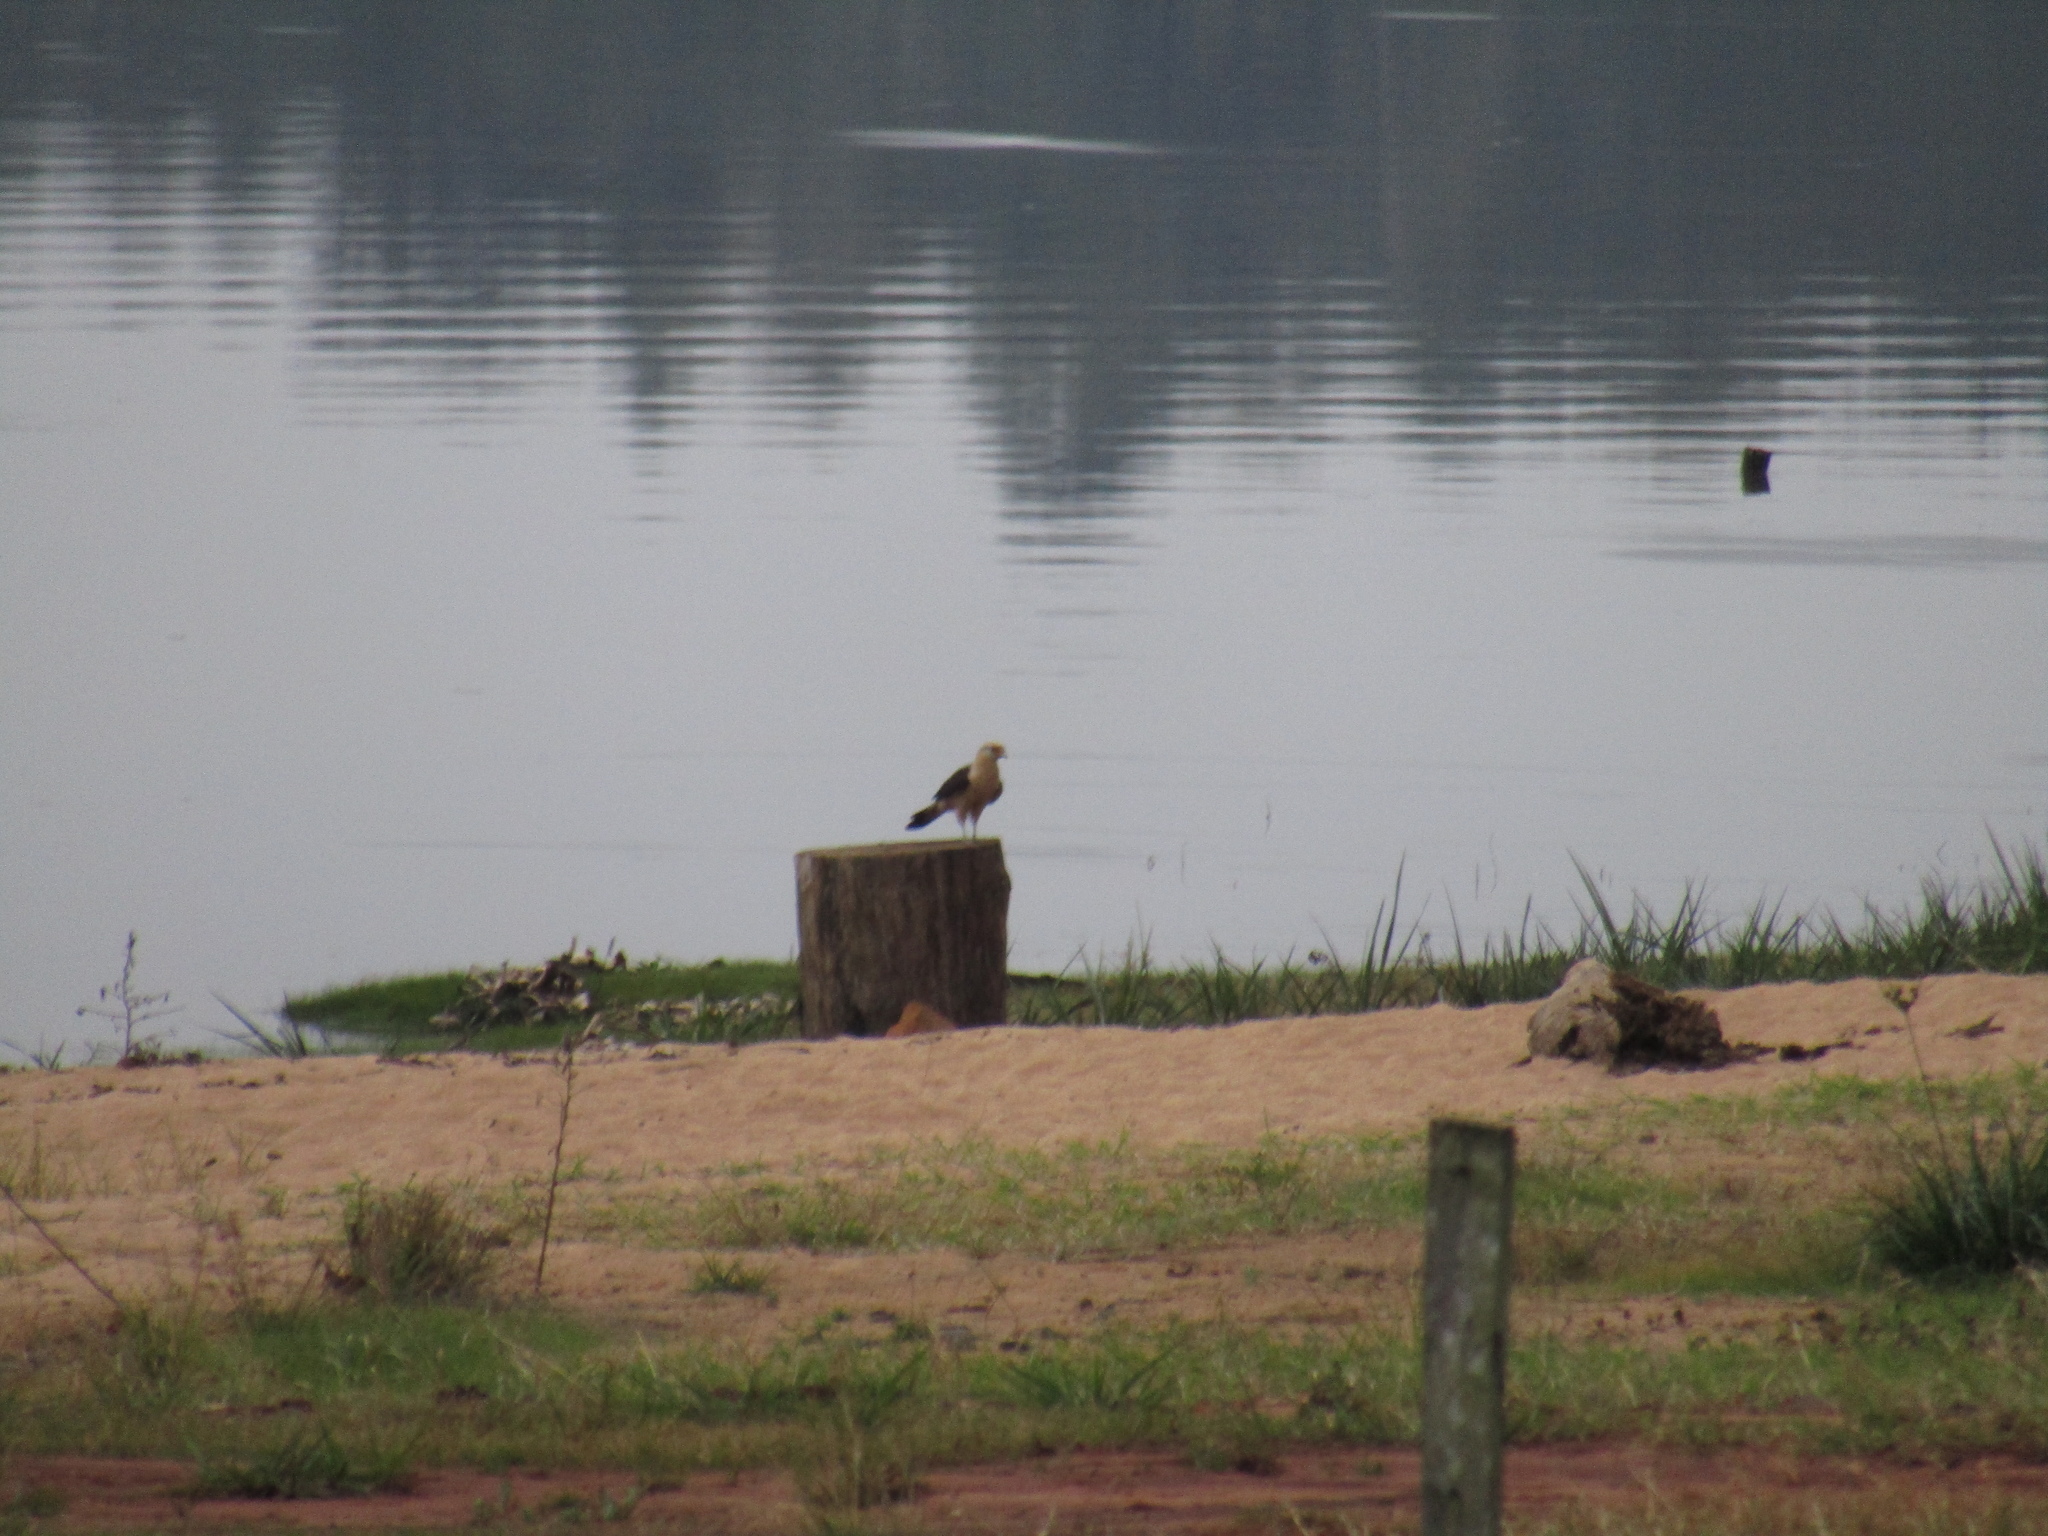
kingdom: Animalia
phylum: Chordata
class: Aves
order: Falconiformes
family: Falconidae
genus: Daptrius
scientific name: Daptrius
